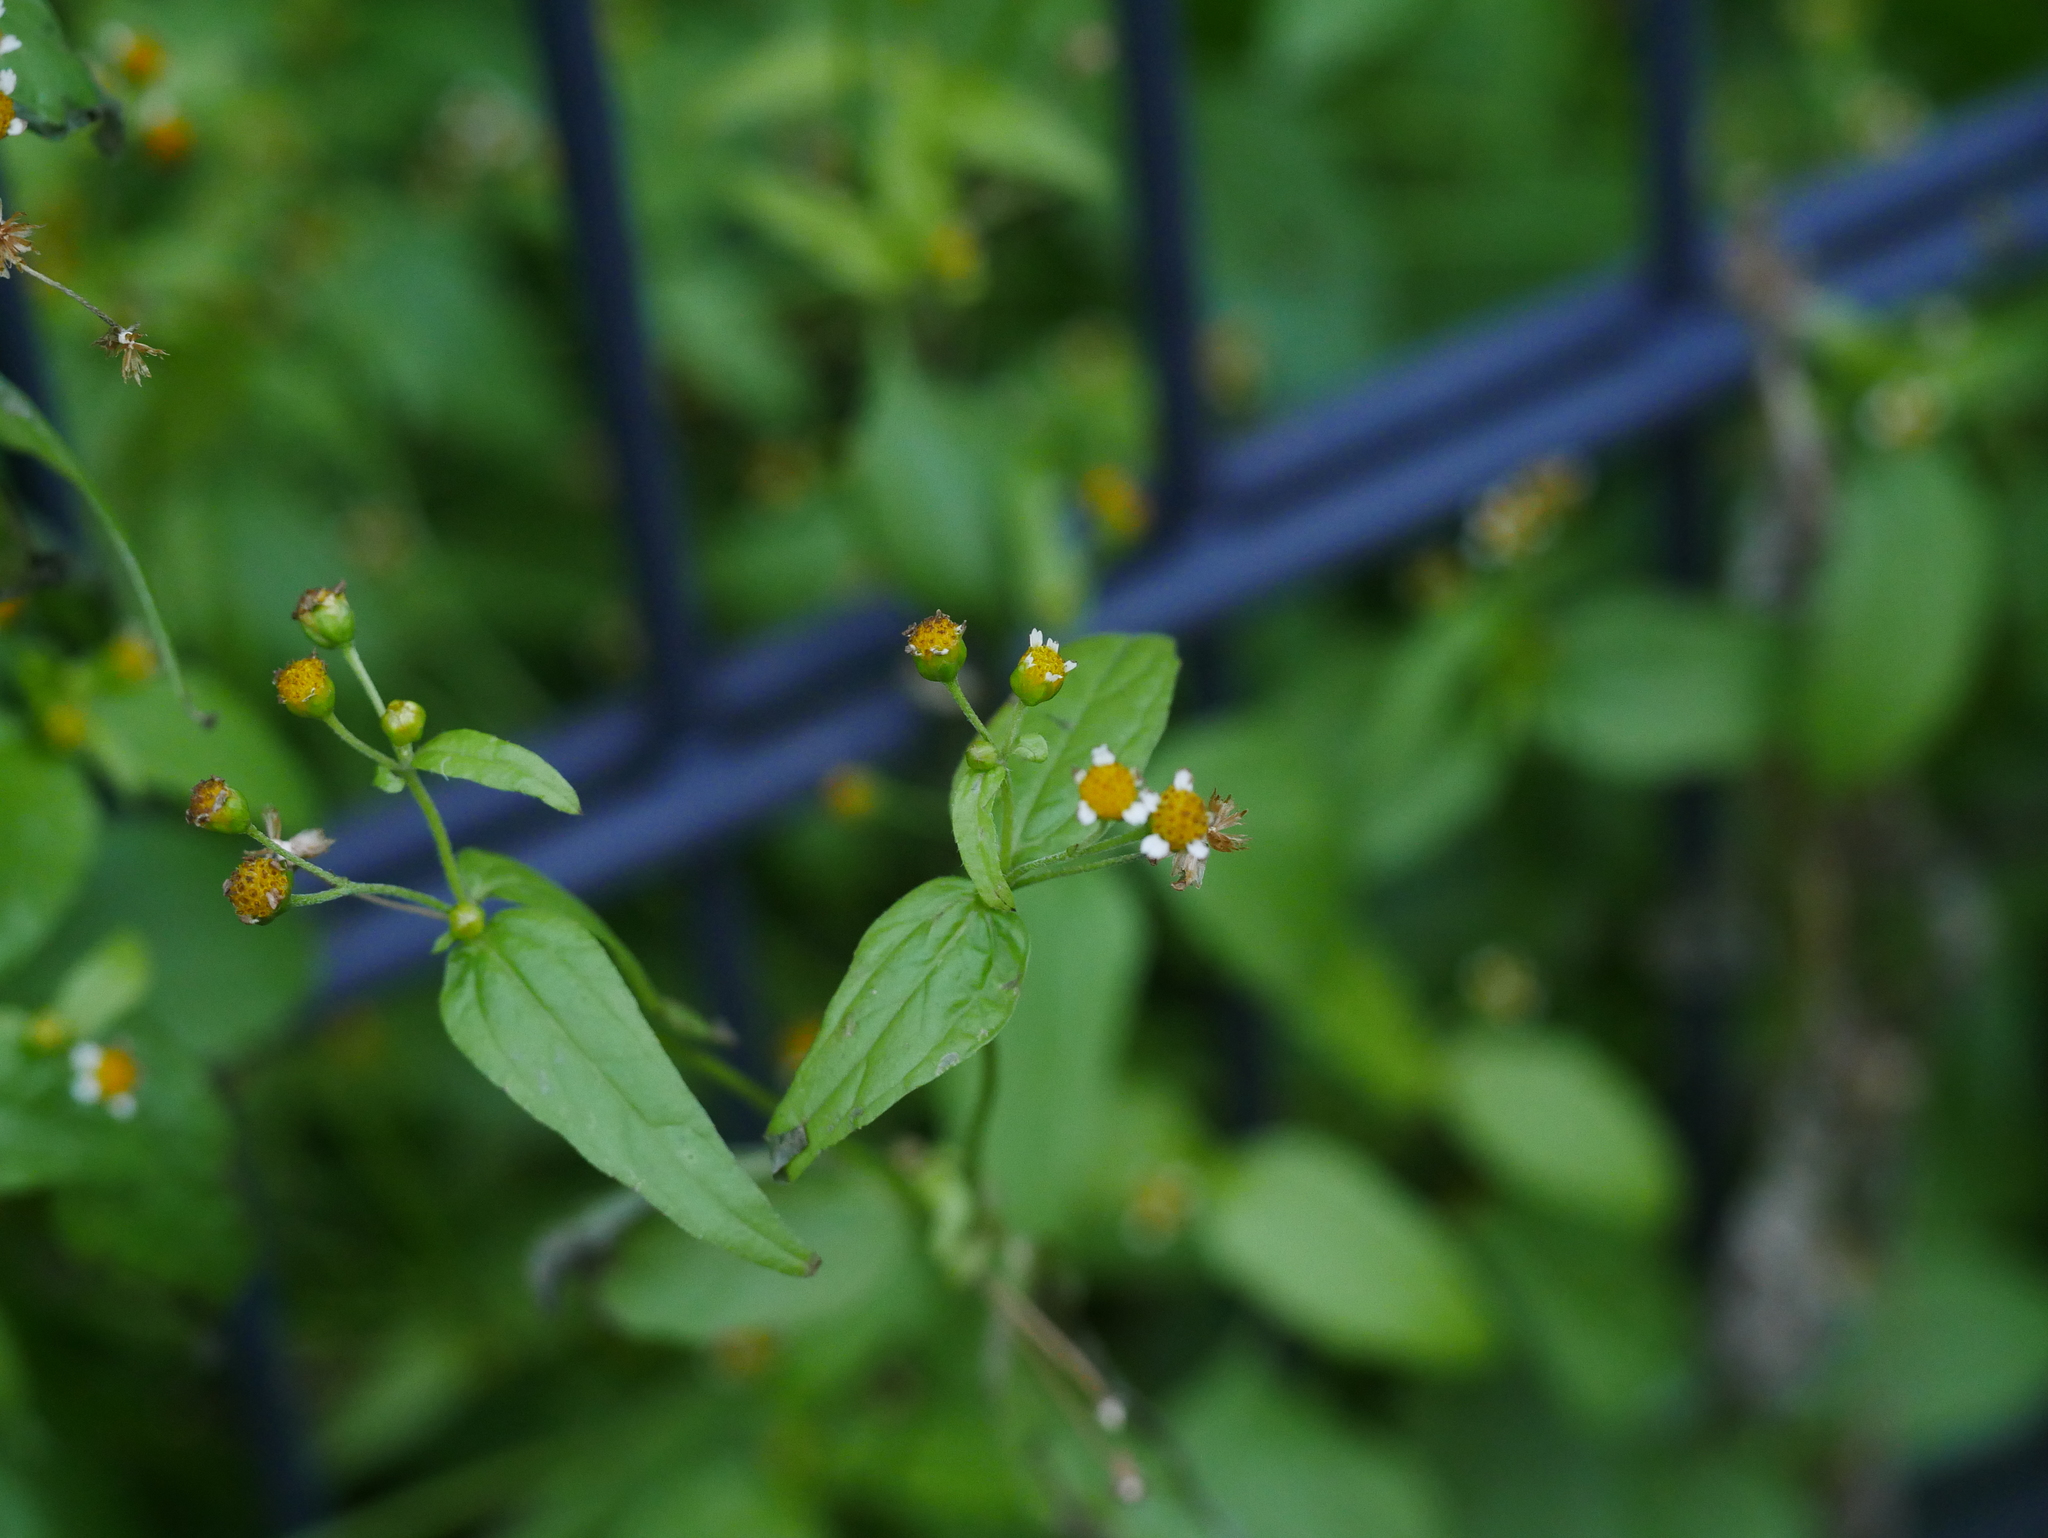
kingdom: Plantae
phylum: Tracheophyta
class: Magnoliopsida
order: Asterales
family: Asteraceae
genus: Galinsoga
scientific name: Galinsoga parviflora
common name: Gallant soldier
